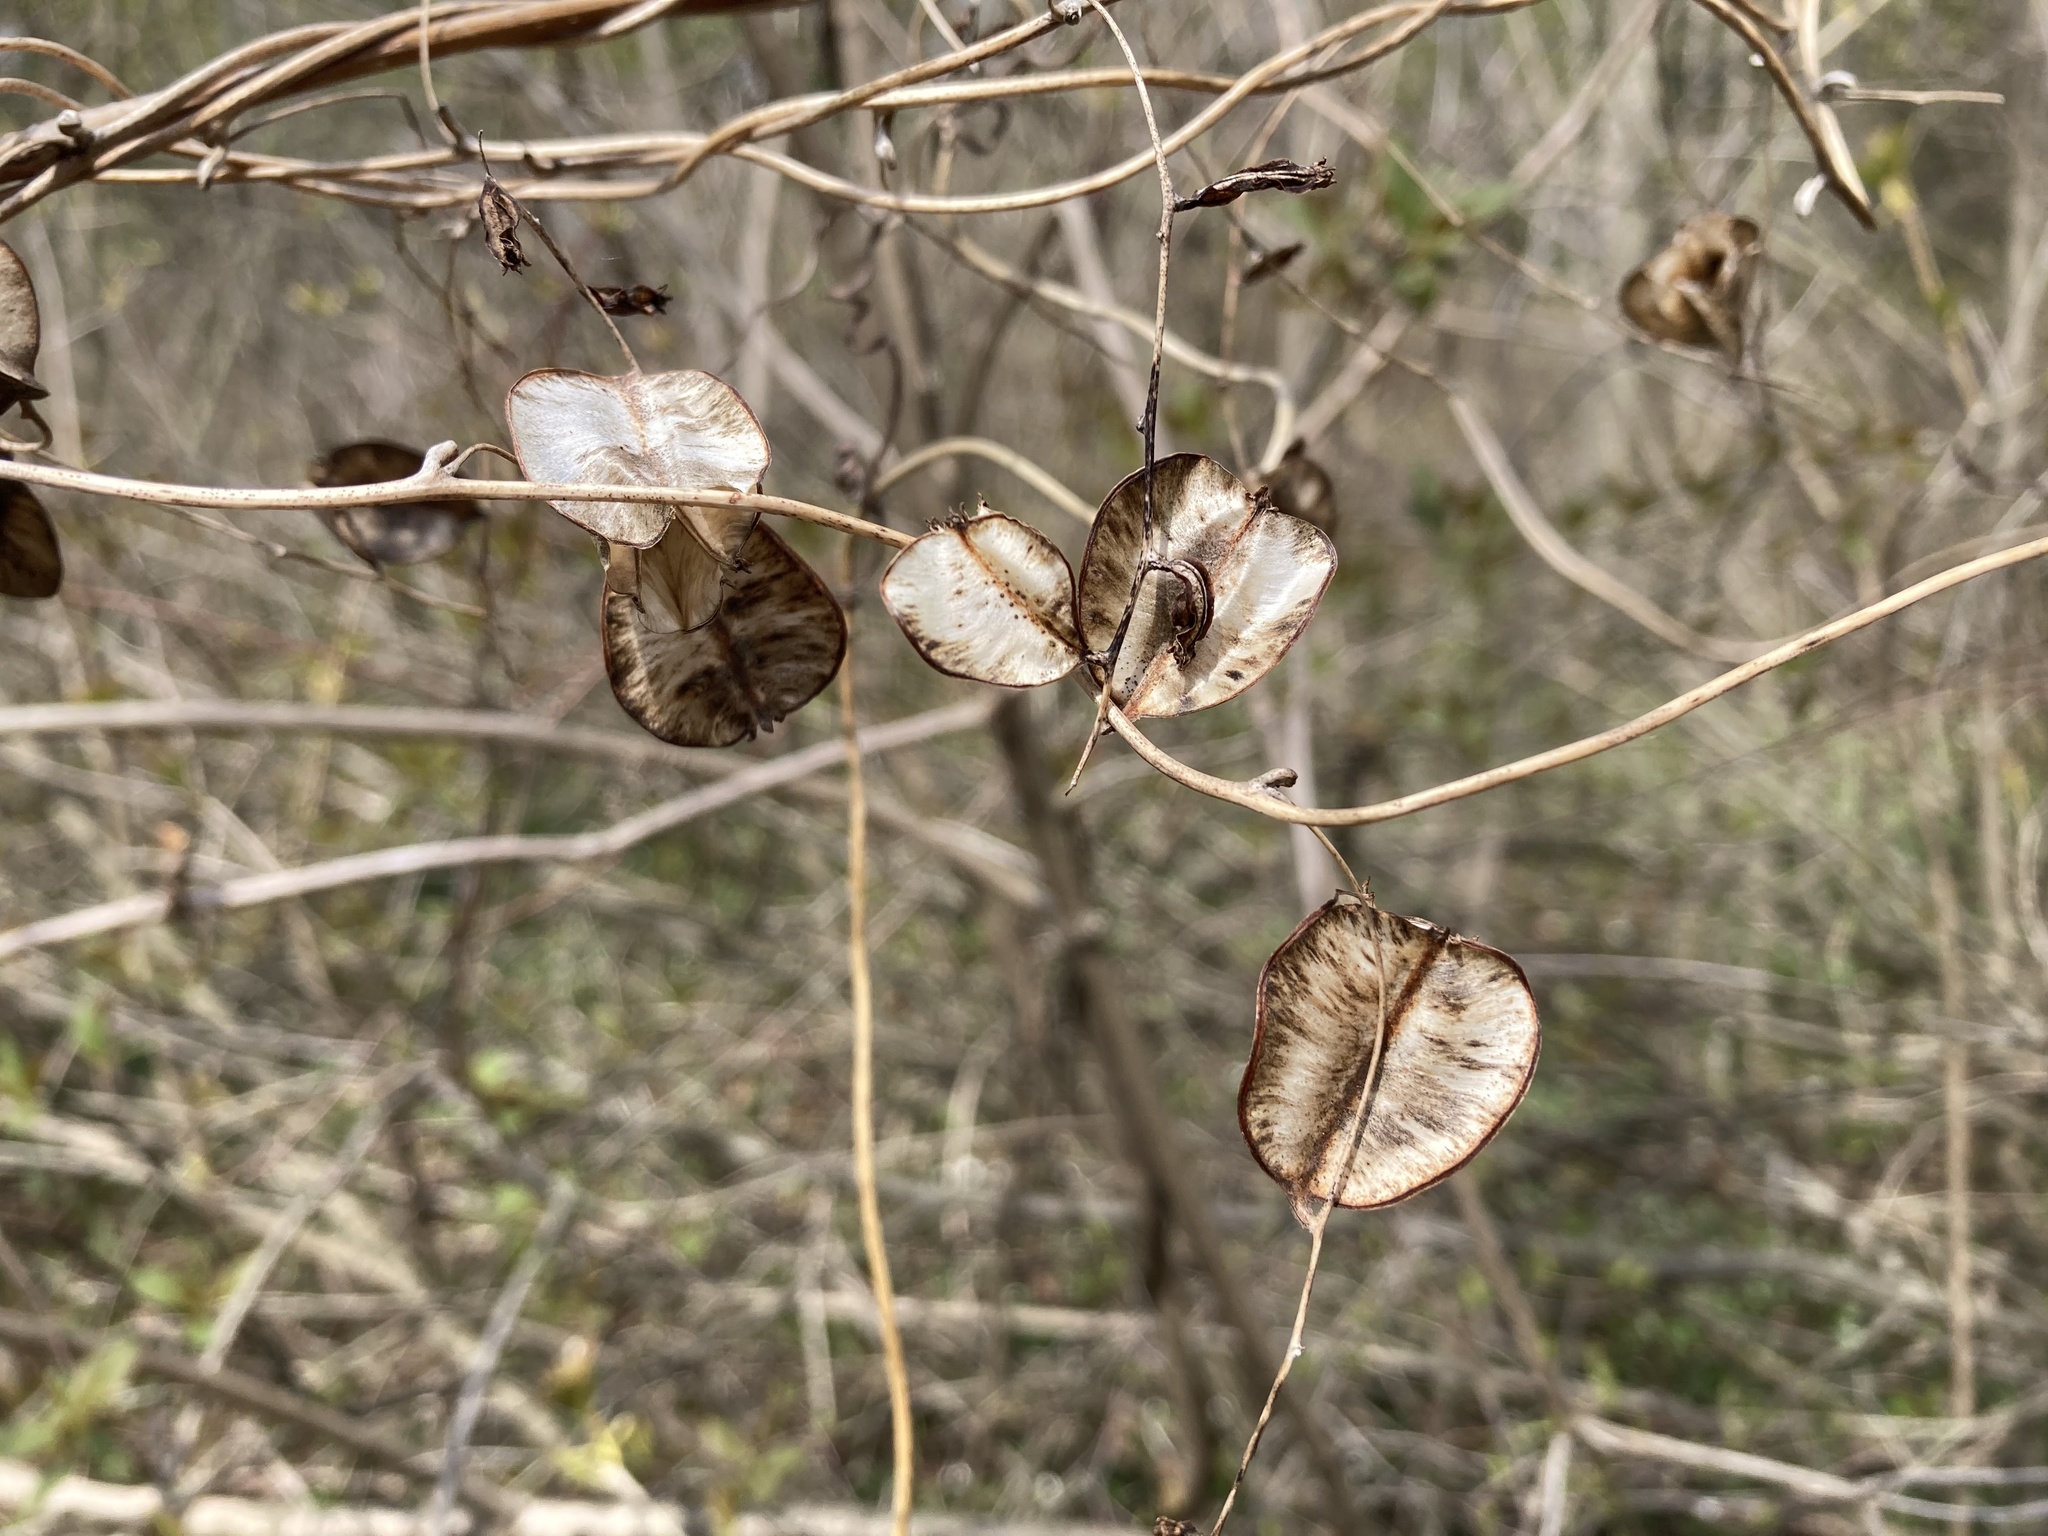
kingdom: Plantae
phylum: Tracheophyta
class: Liliopsida
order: Dioscoreales
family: Dioscoreaceae
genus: Dioscorea
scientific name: Dioscorea villosa
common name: Wild yam
